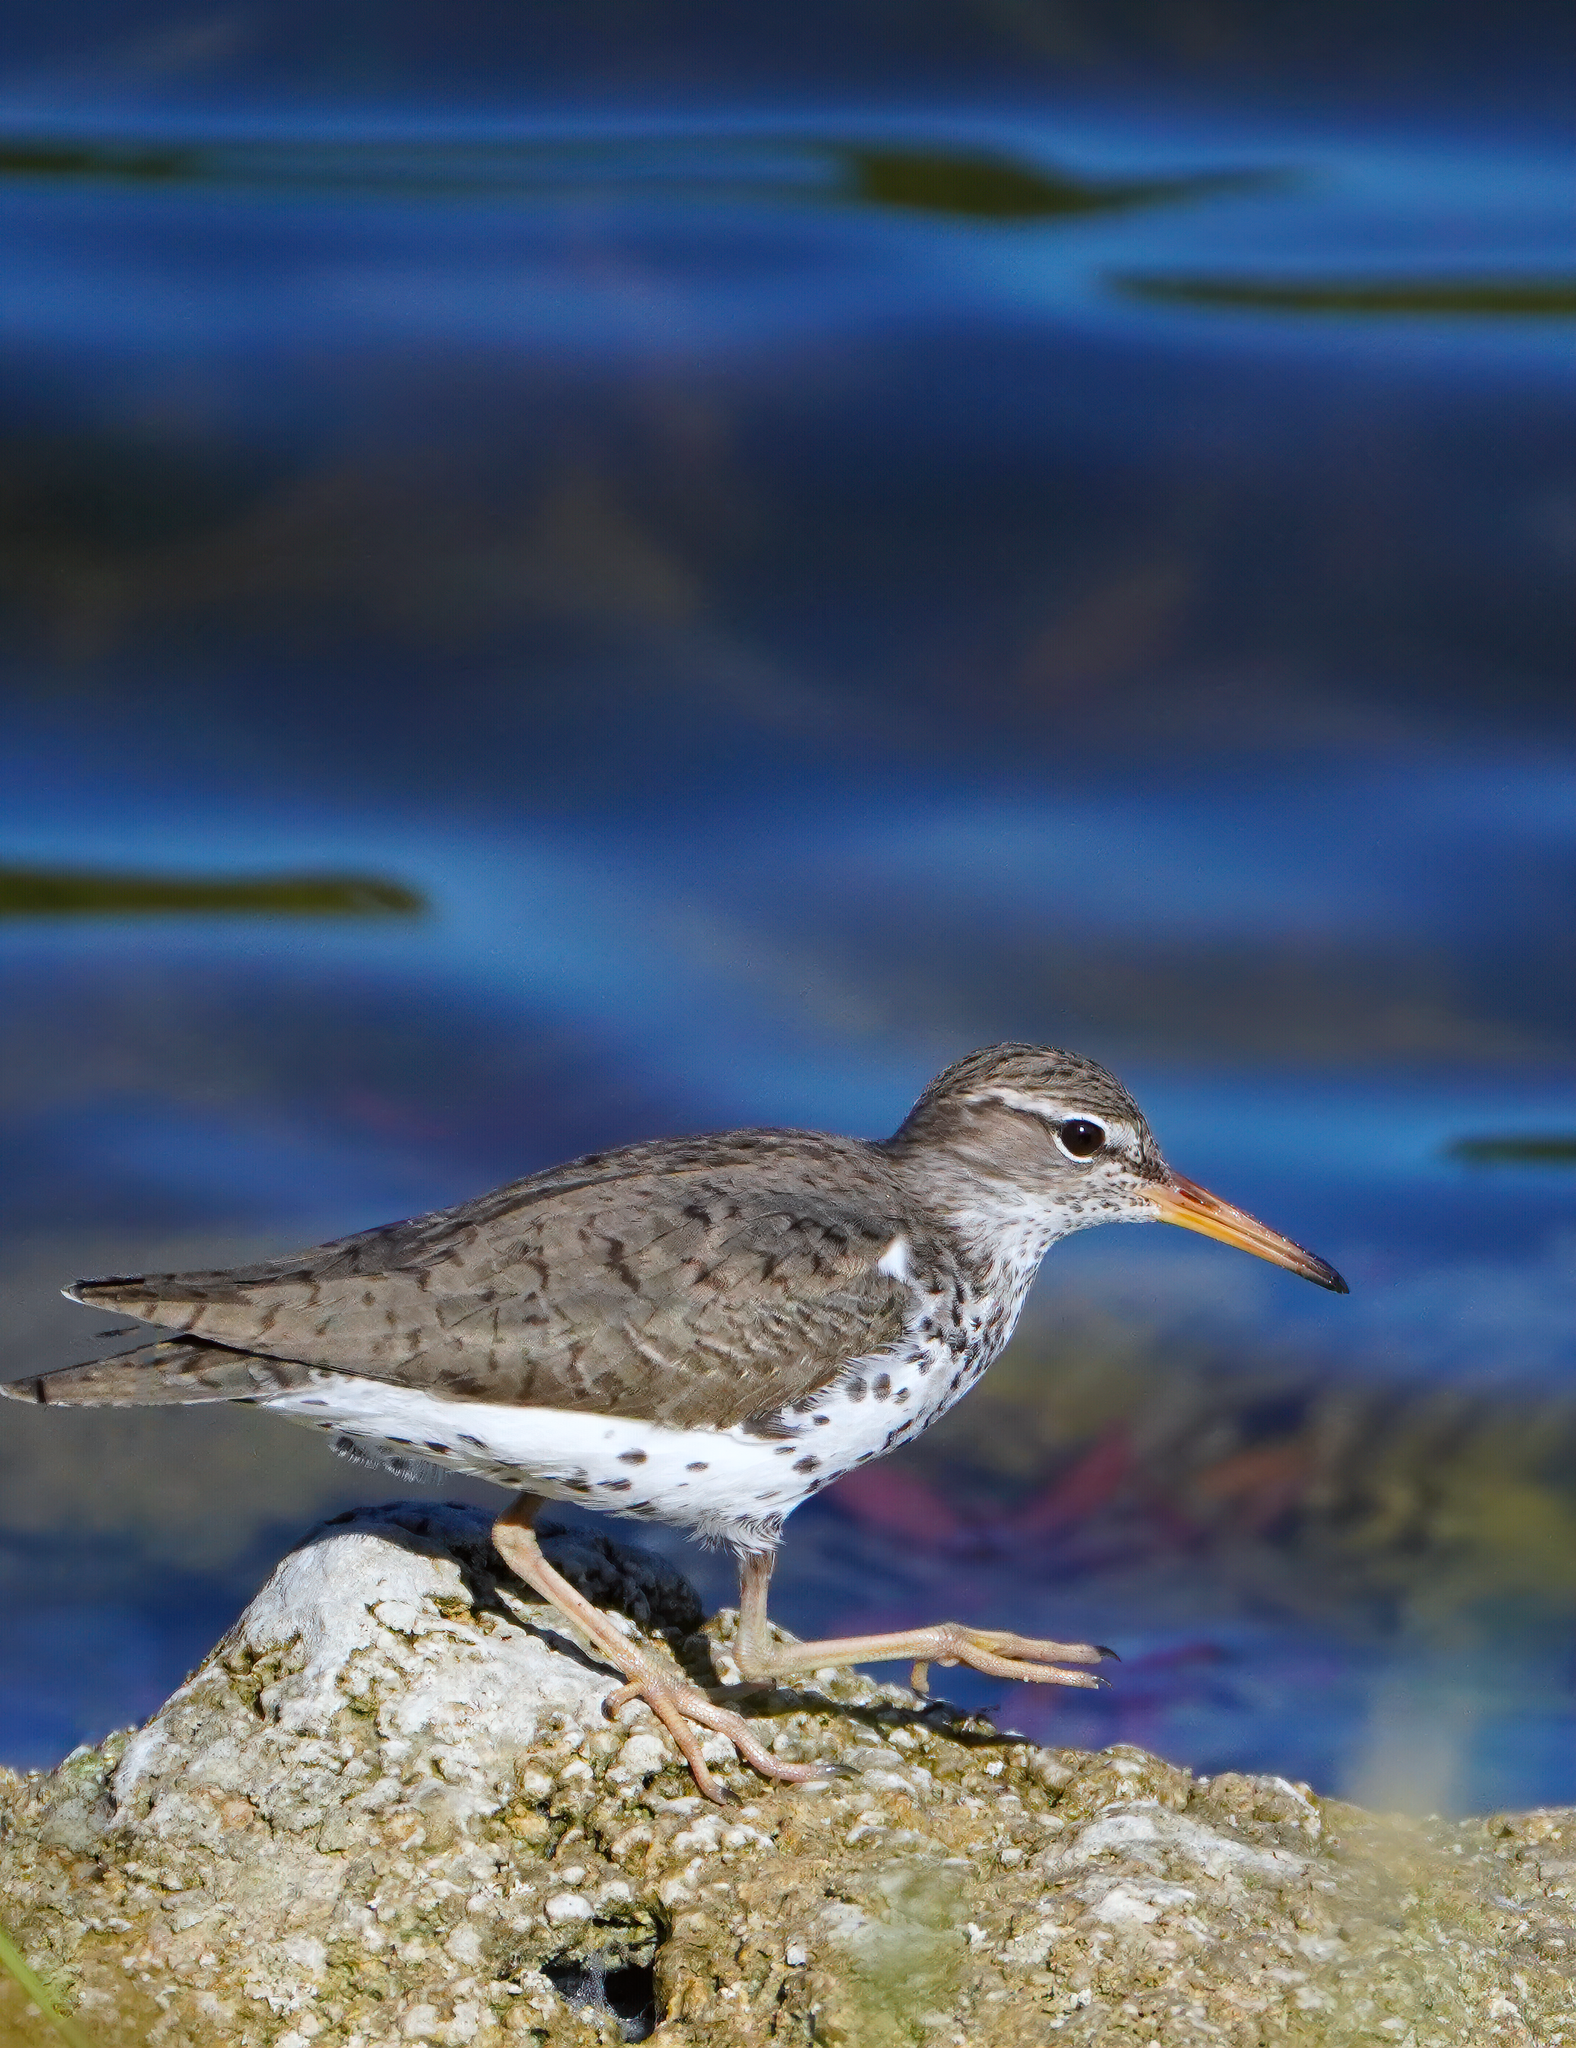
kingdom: Animalia
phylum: Chordata
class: Aves
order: Charadriiformes
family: Scolopacidae
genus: Actitis
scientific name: Actitis macularius
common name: Spotted sandpiper
